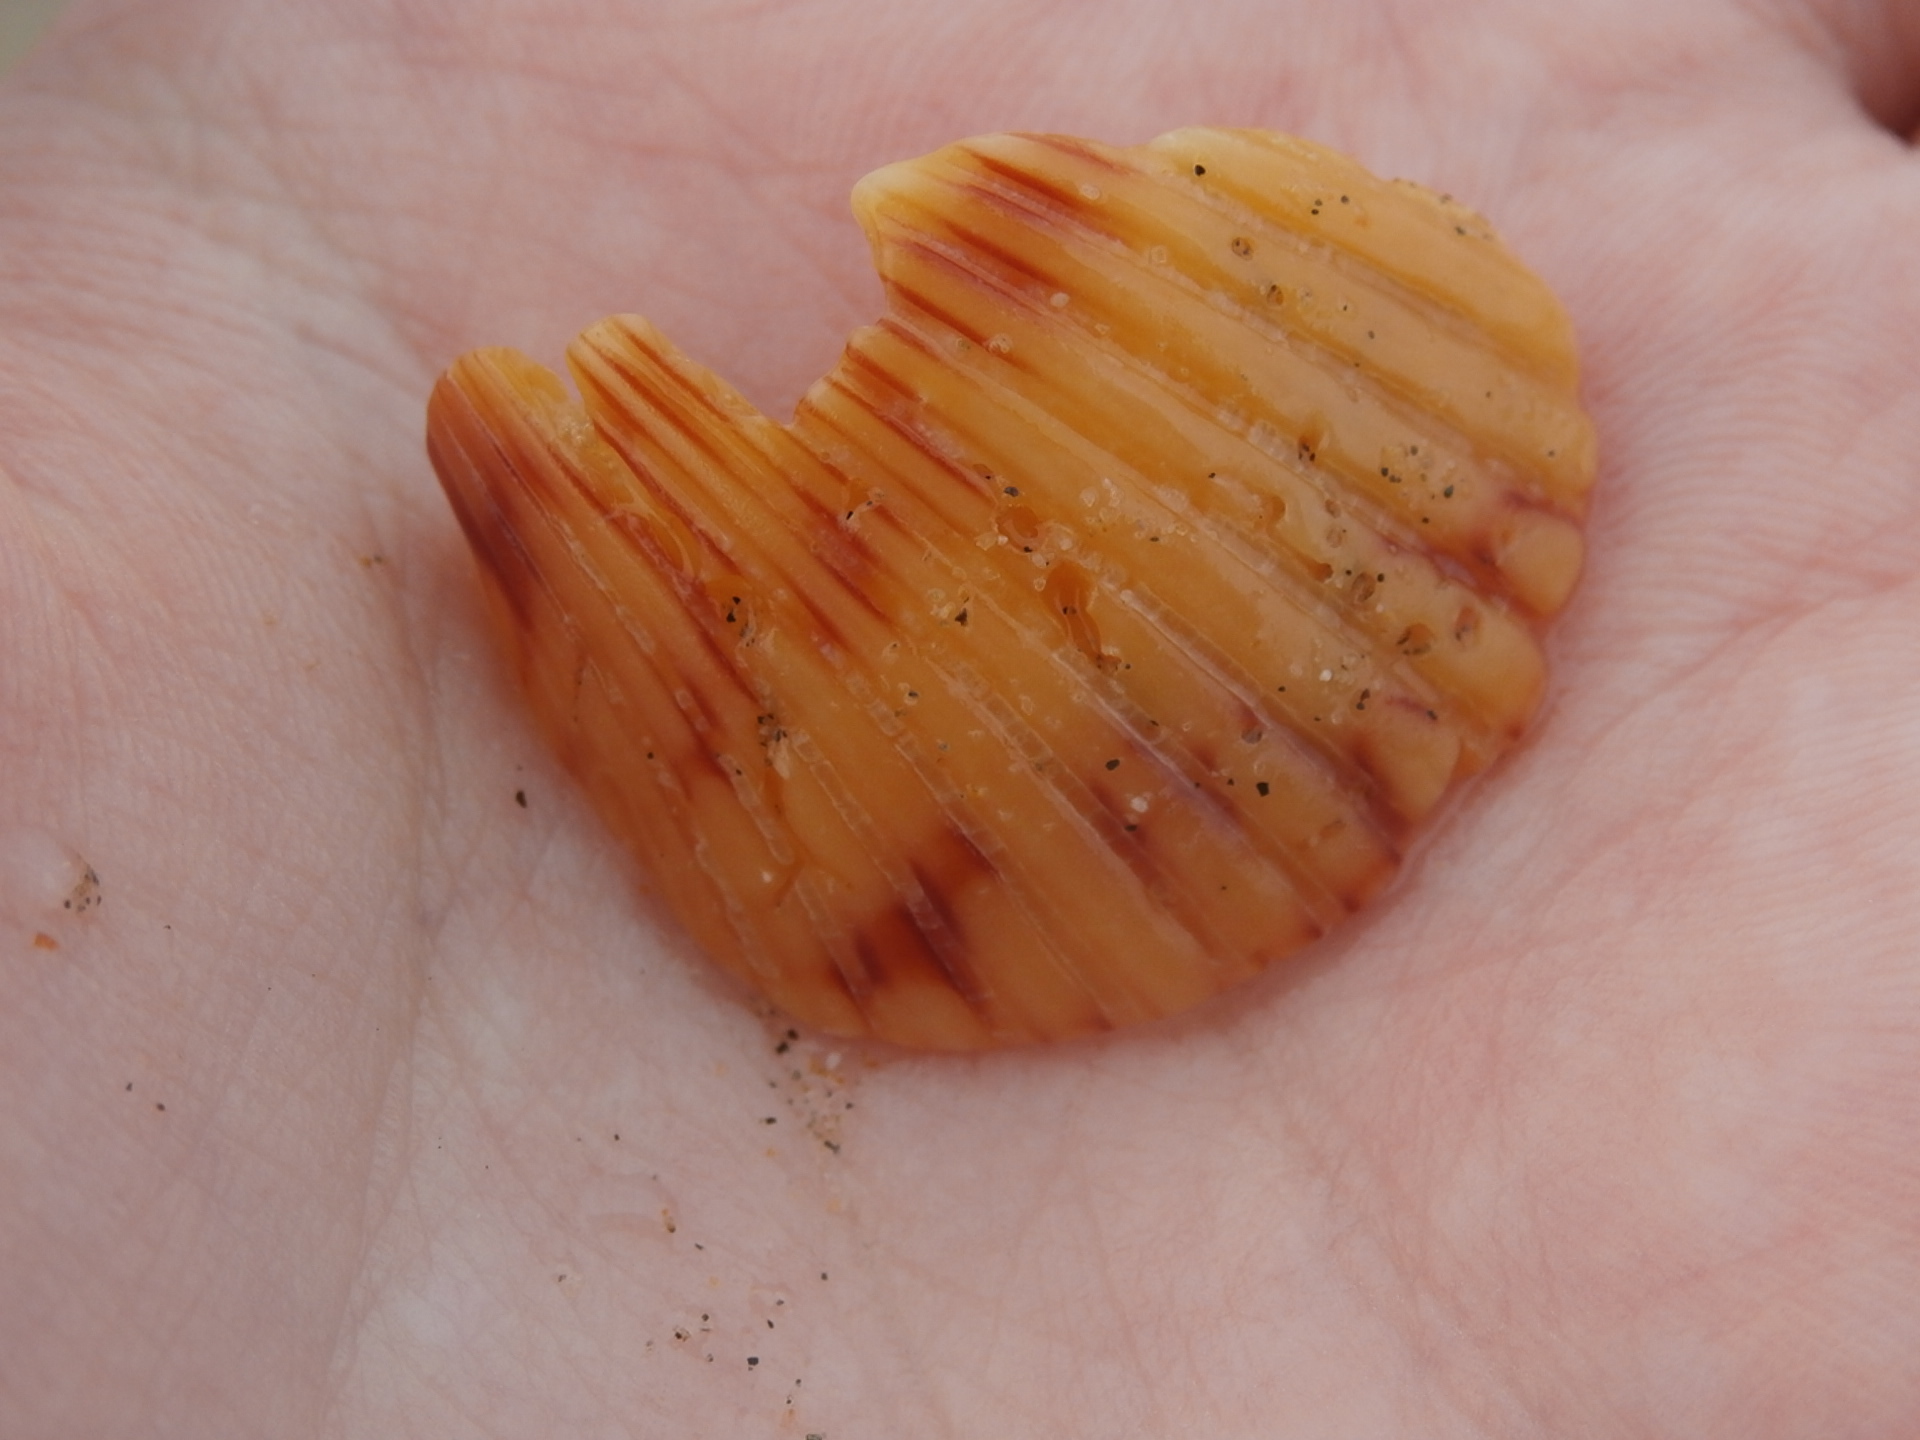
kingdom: Animalia
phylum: Mollusca
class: Bivalvia
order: Pectinida
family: Pectinidae
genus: Argopecten
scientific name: Argopecten ventricosus
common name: Catarina scallop
